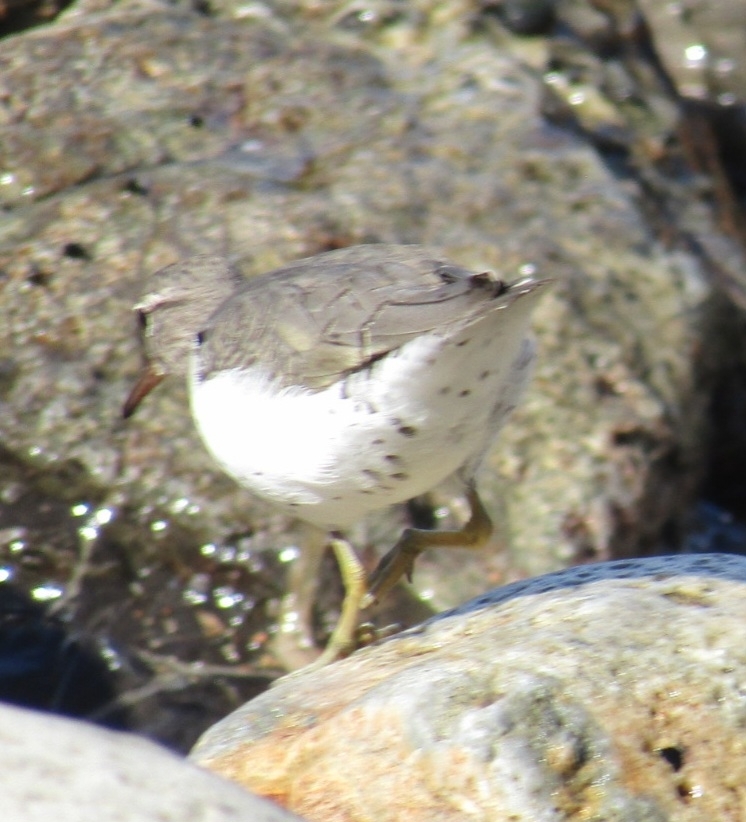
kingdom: Animalia
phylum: Chordata
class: Aves
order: Charadriiformes
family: Scolopacidae
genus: Actitis
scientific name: Actitis macularius
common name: Spotted sandpiper
